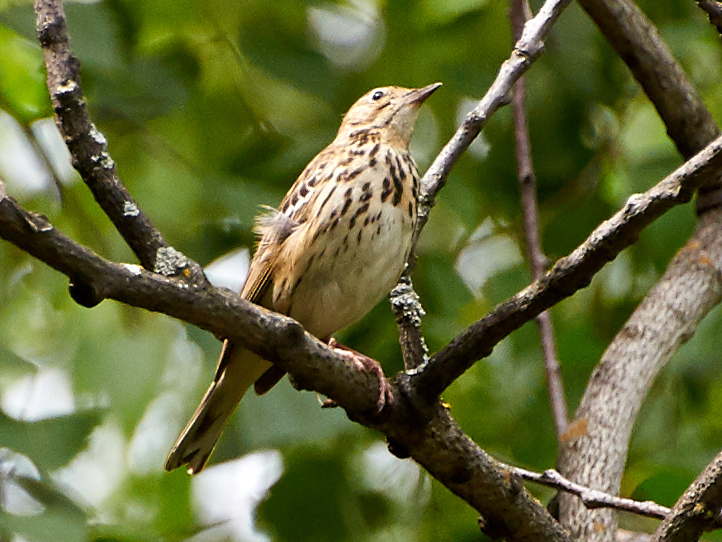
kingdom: Animalia
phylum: Chordata
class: Aves
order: Passeriformes
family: Motacillidae
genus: Anthus
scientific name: Anthus trivialis
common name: Tree pipit
